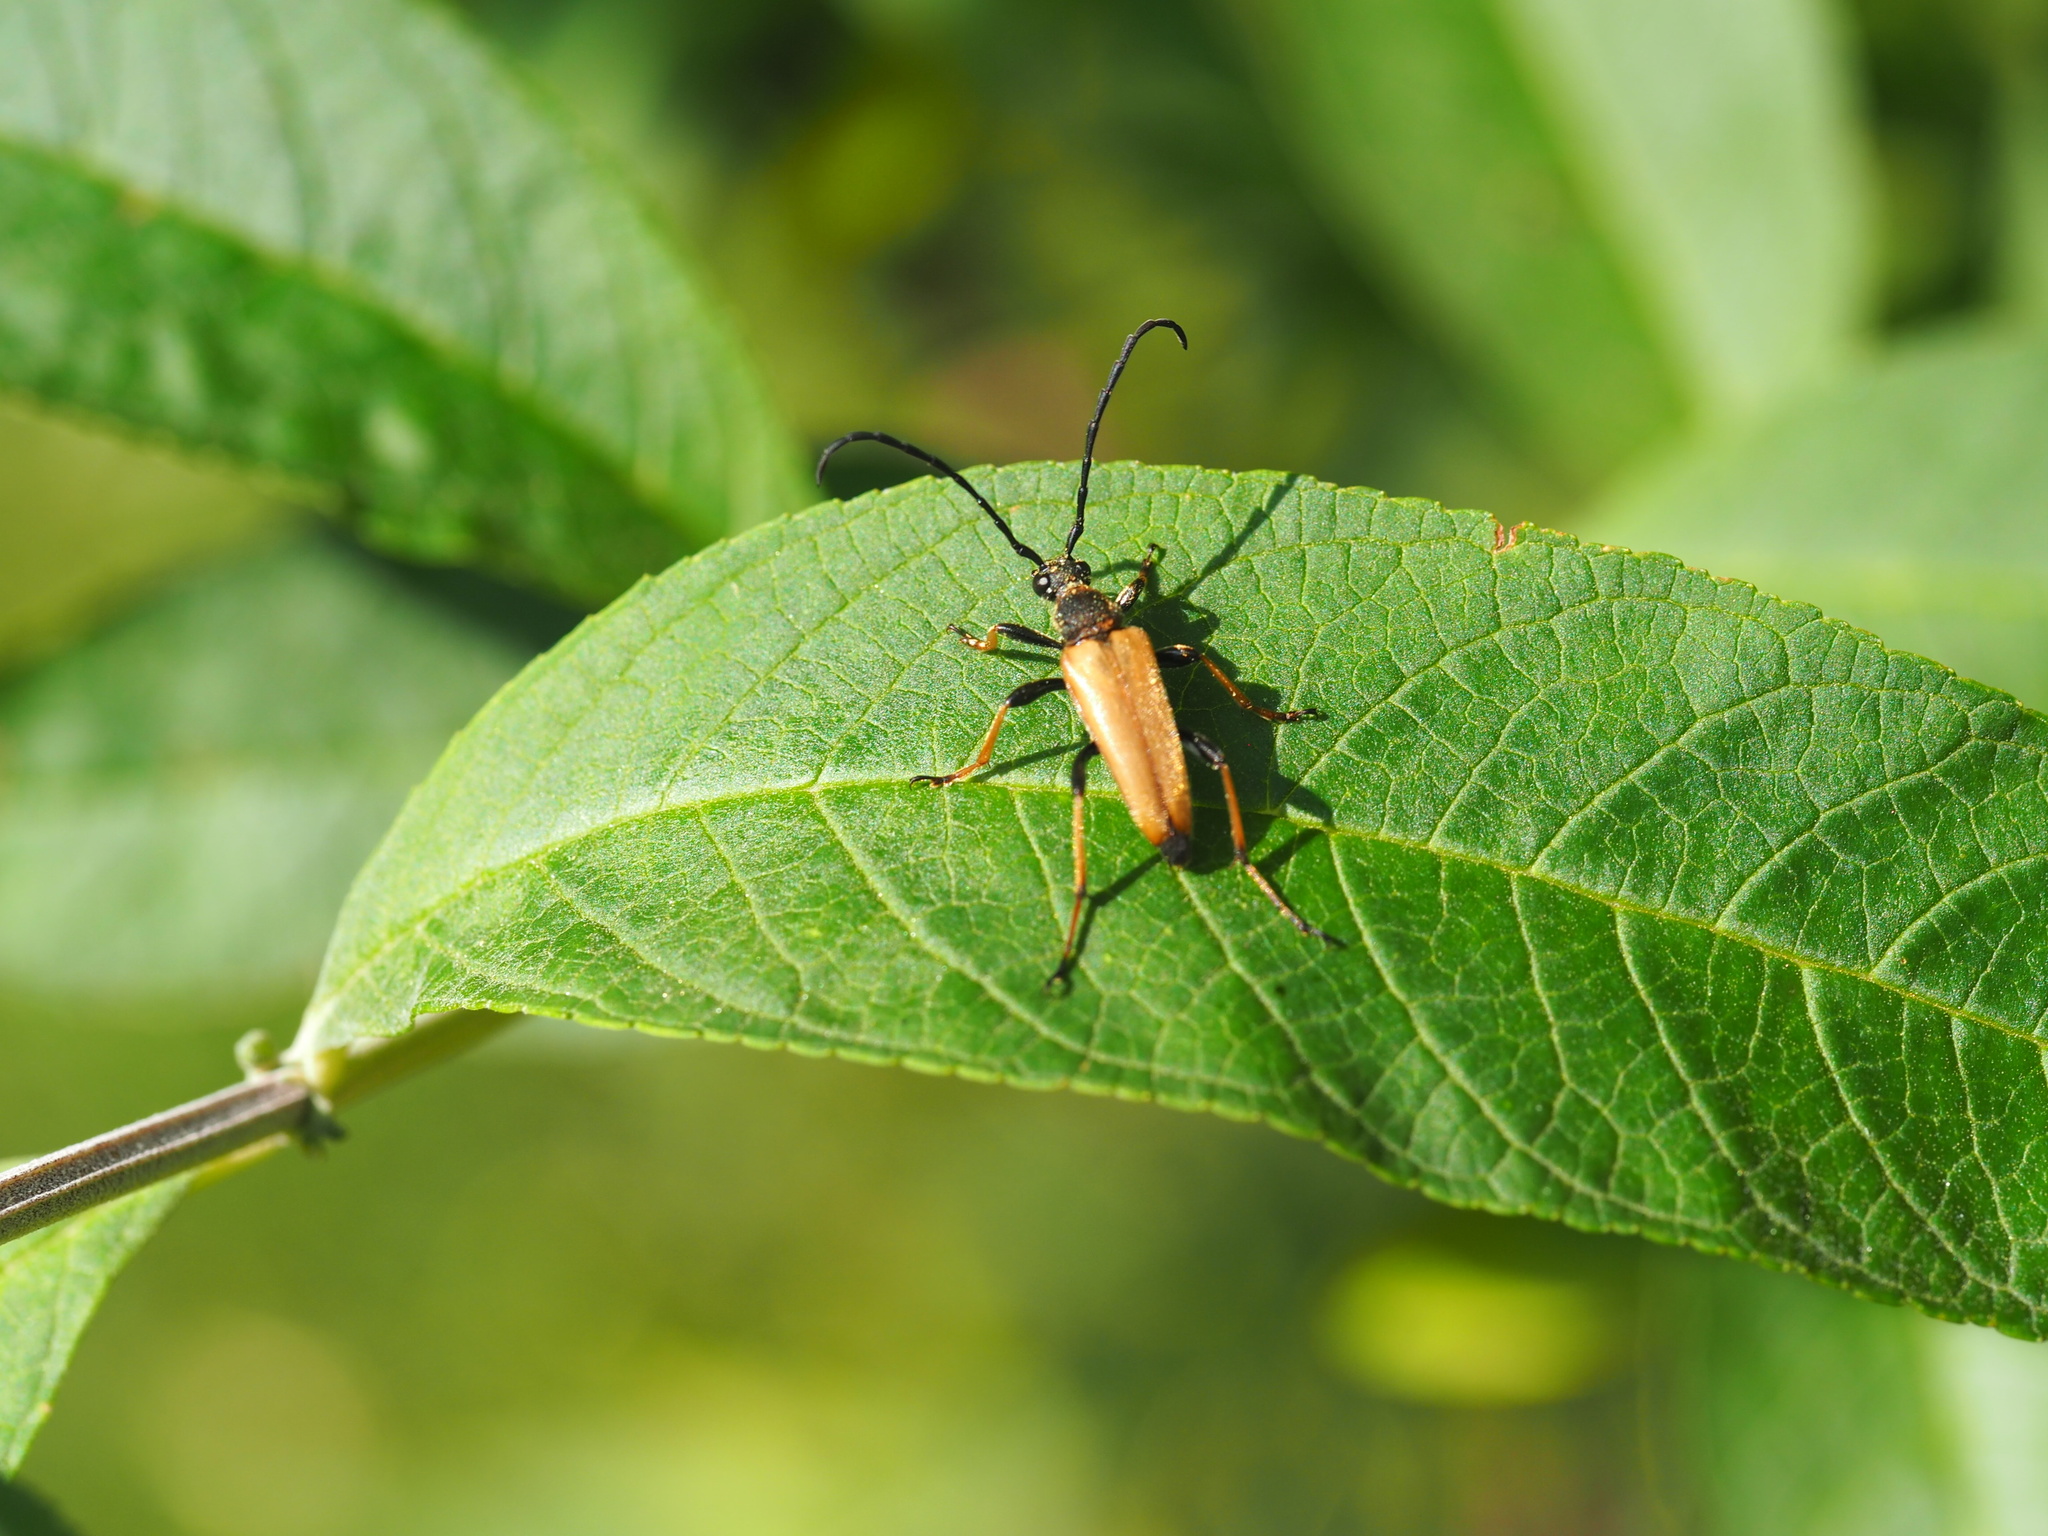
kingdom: Animalia
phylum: Arthropoda
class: Insecta
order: Coleoptera
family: Cerambycidae
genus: Stictoleptura
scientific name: Stictoleptura rubra
